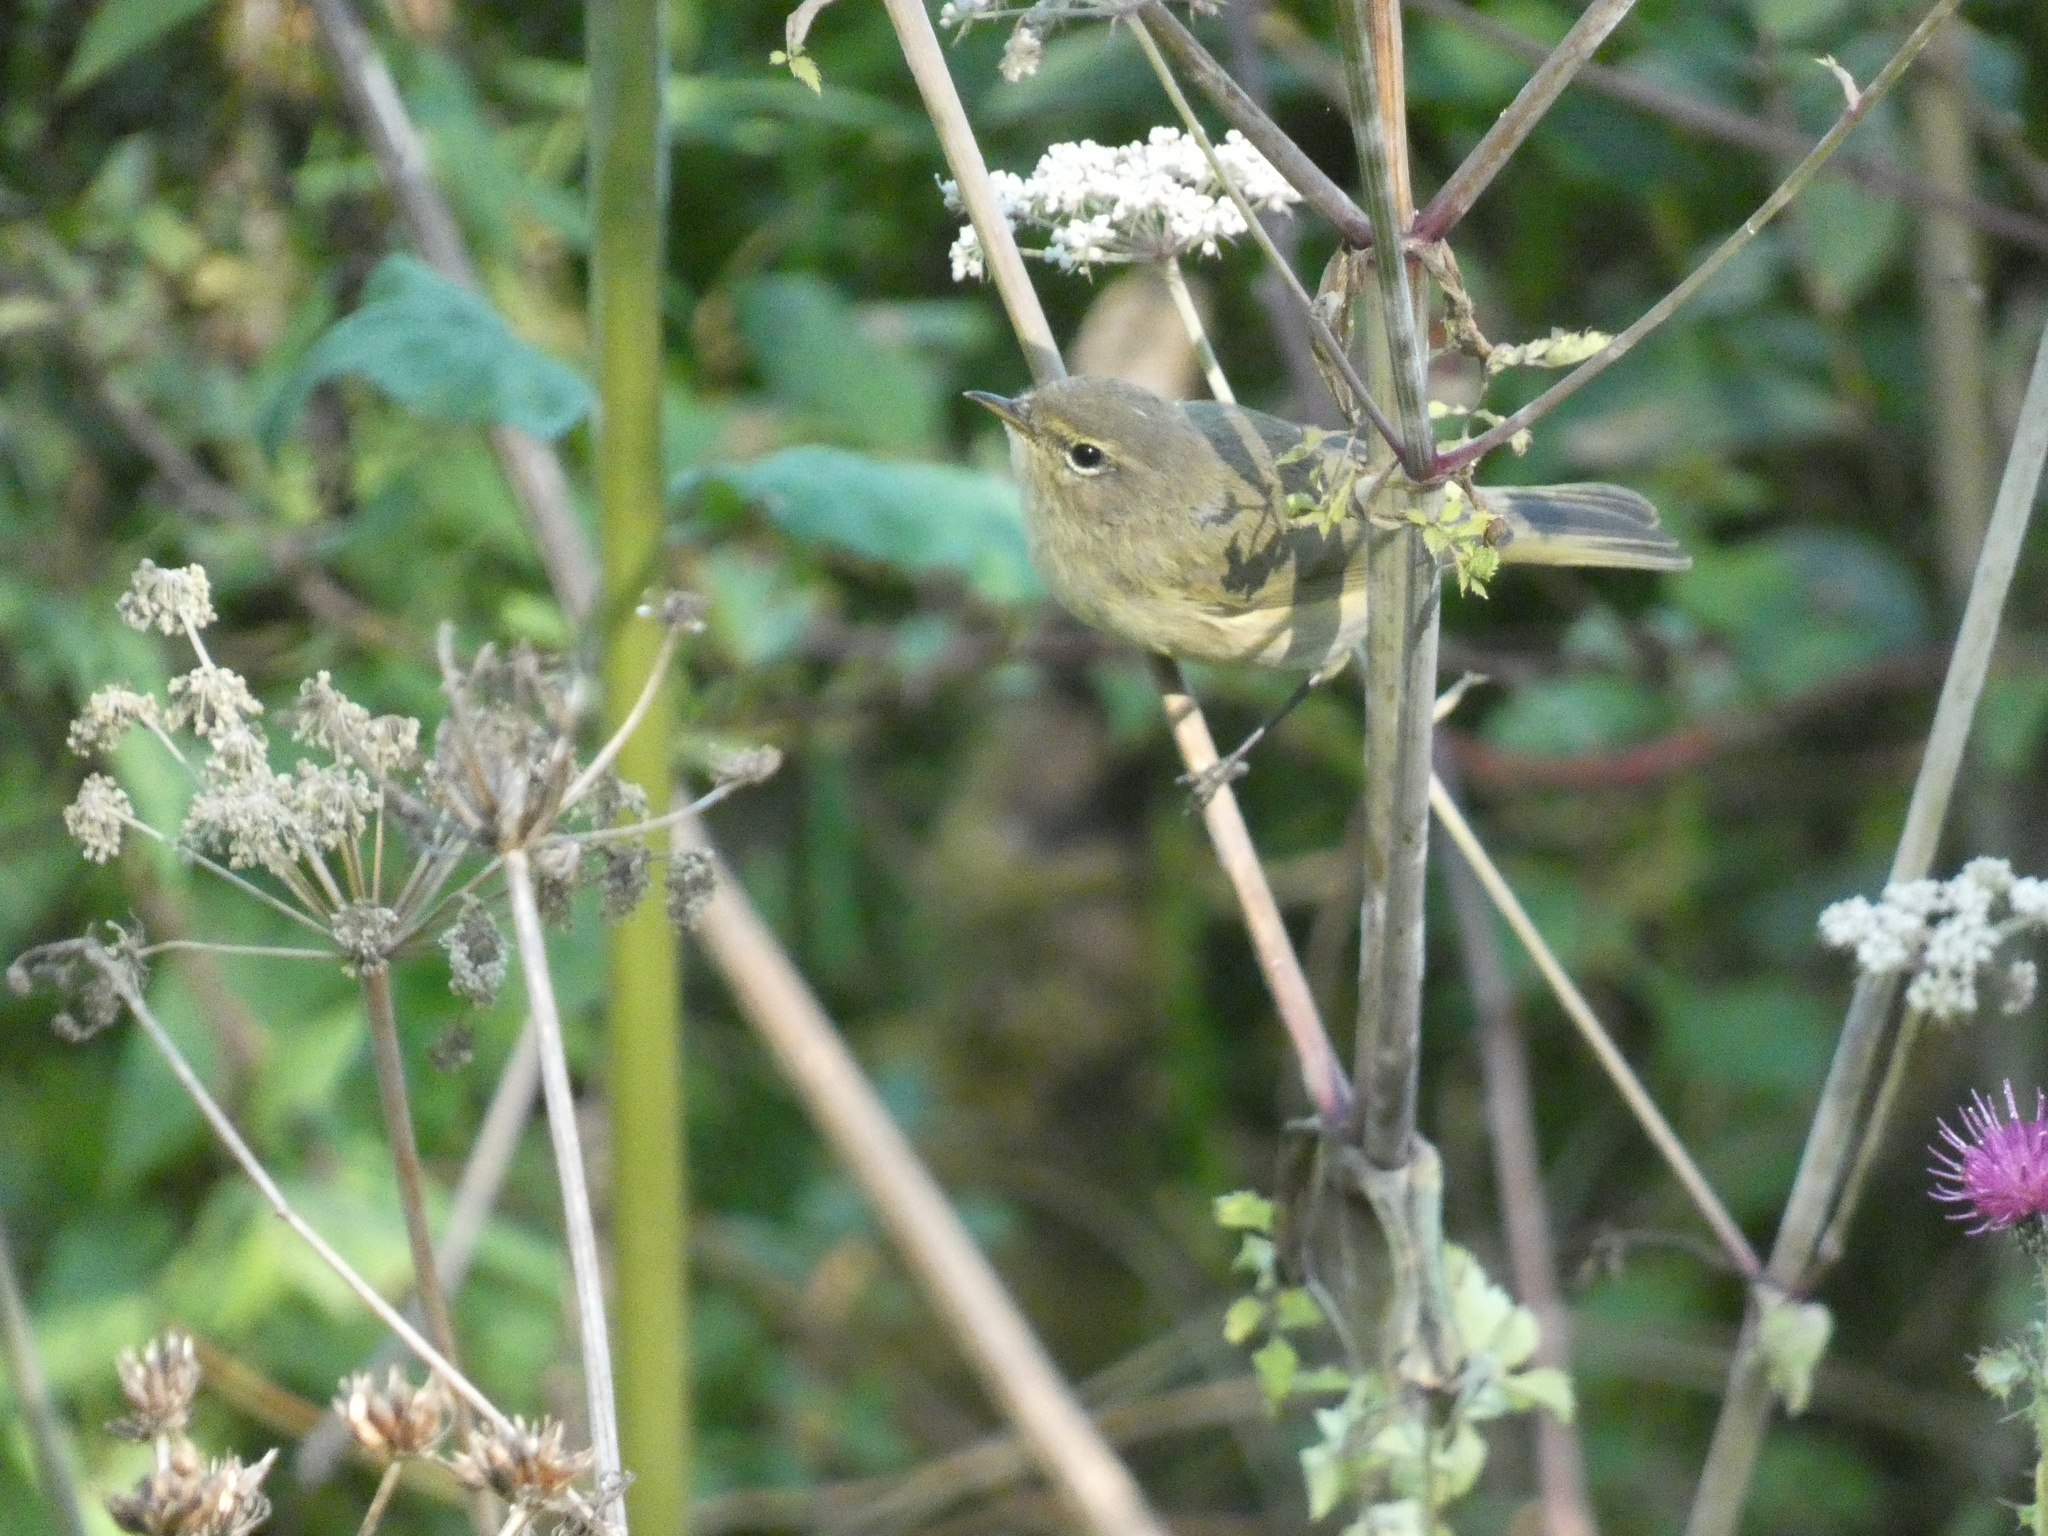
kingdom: Animalia
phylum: Chordata
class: Aves
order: Passeriformes
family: Phylloscopidae
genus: Phylloscopus
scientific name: Phylloscopus collybita
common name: Common chiffchaff
